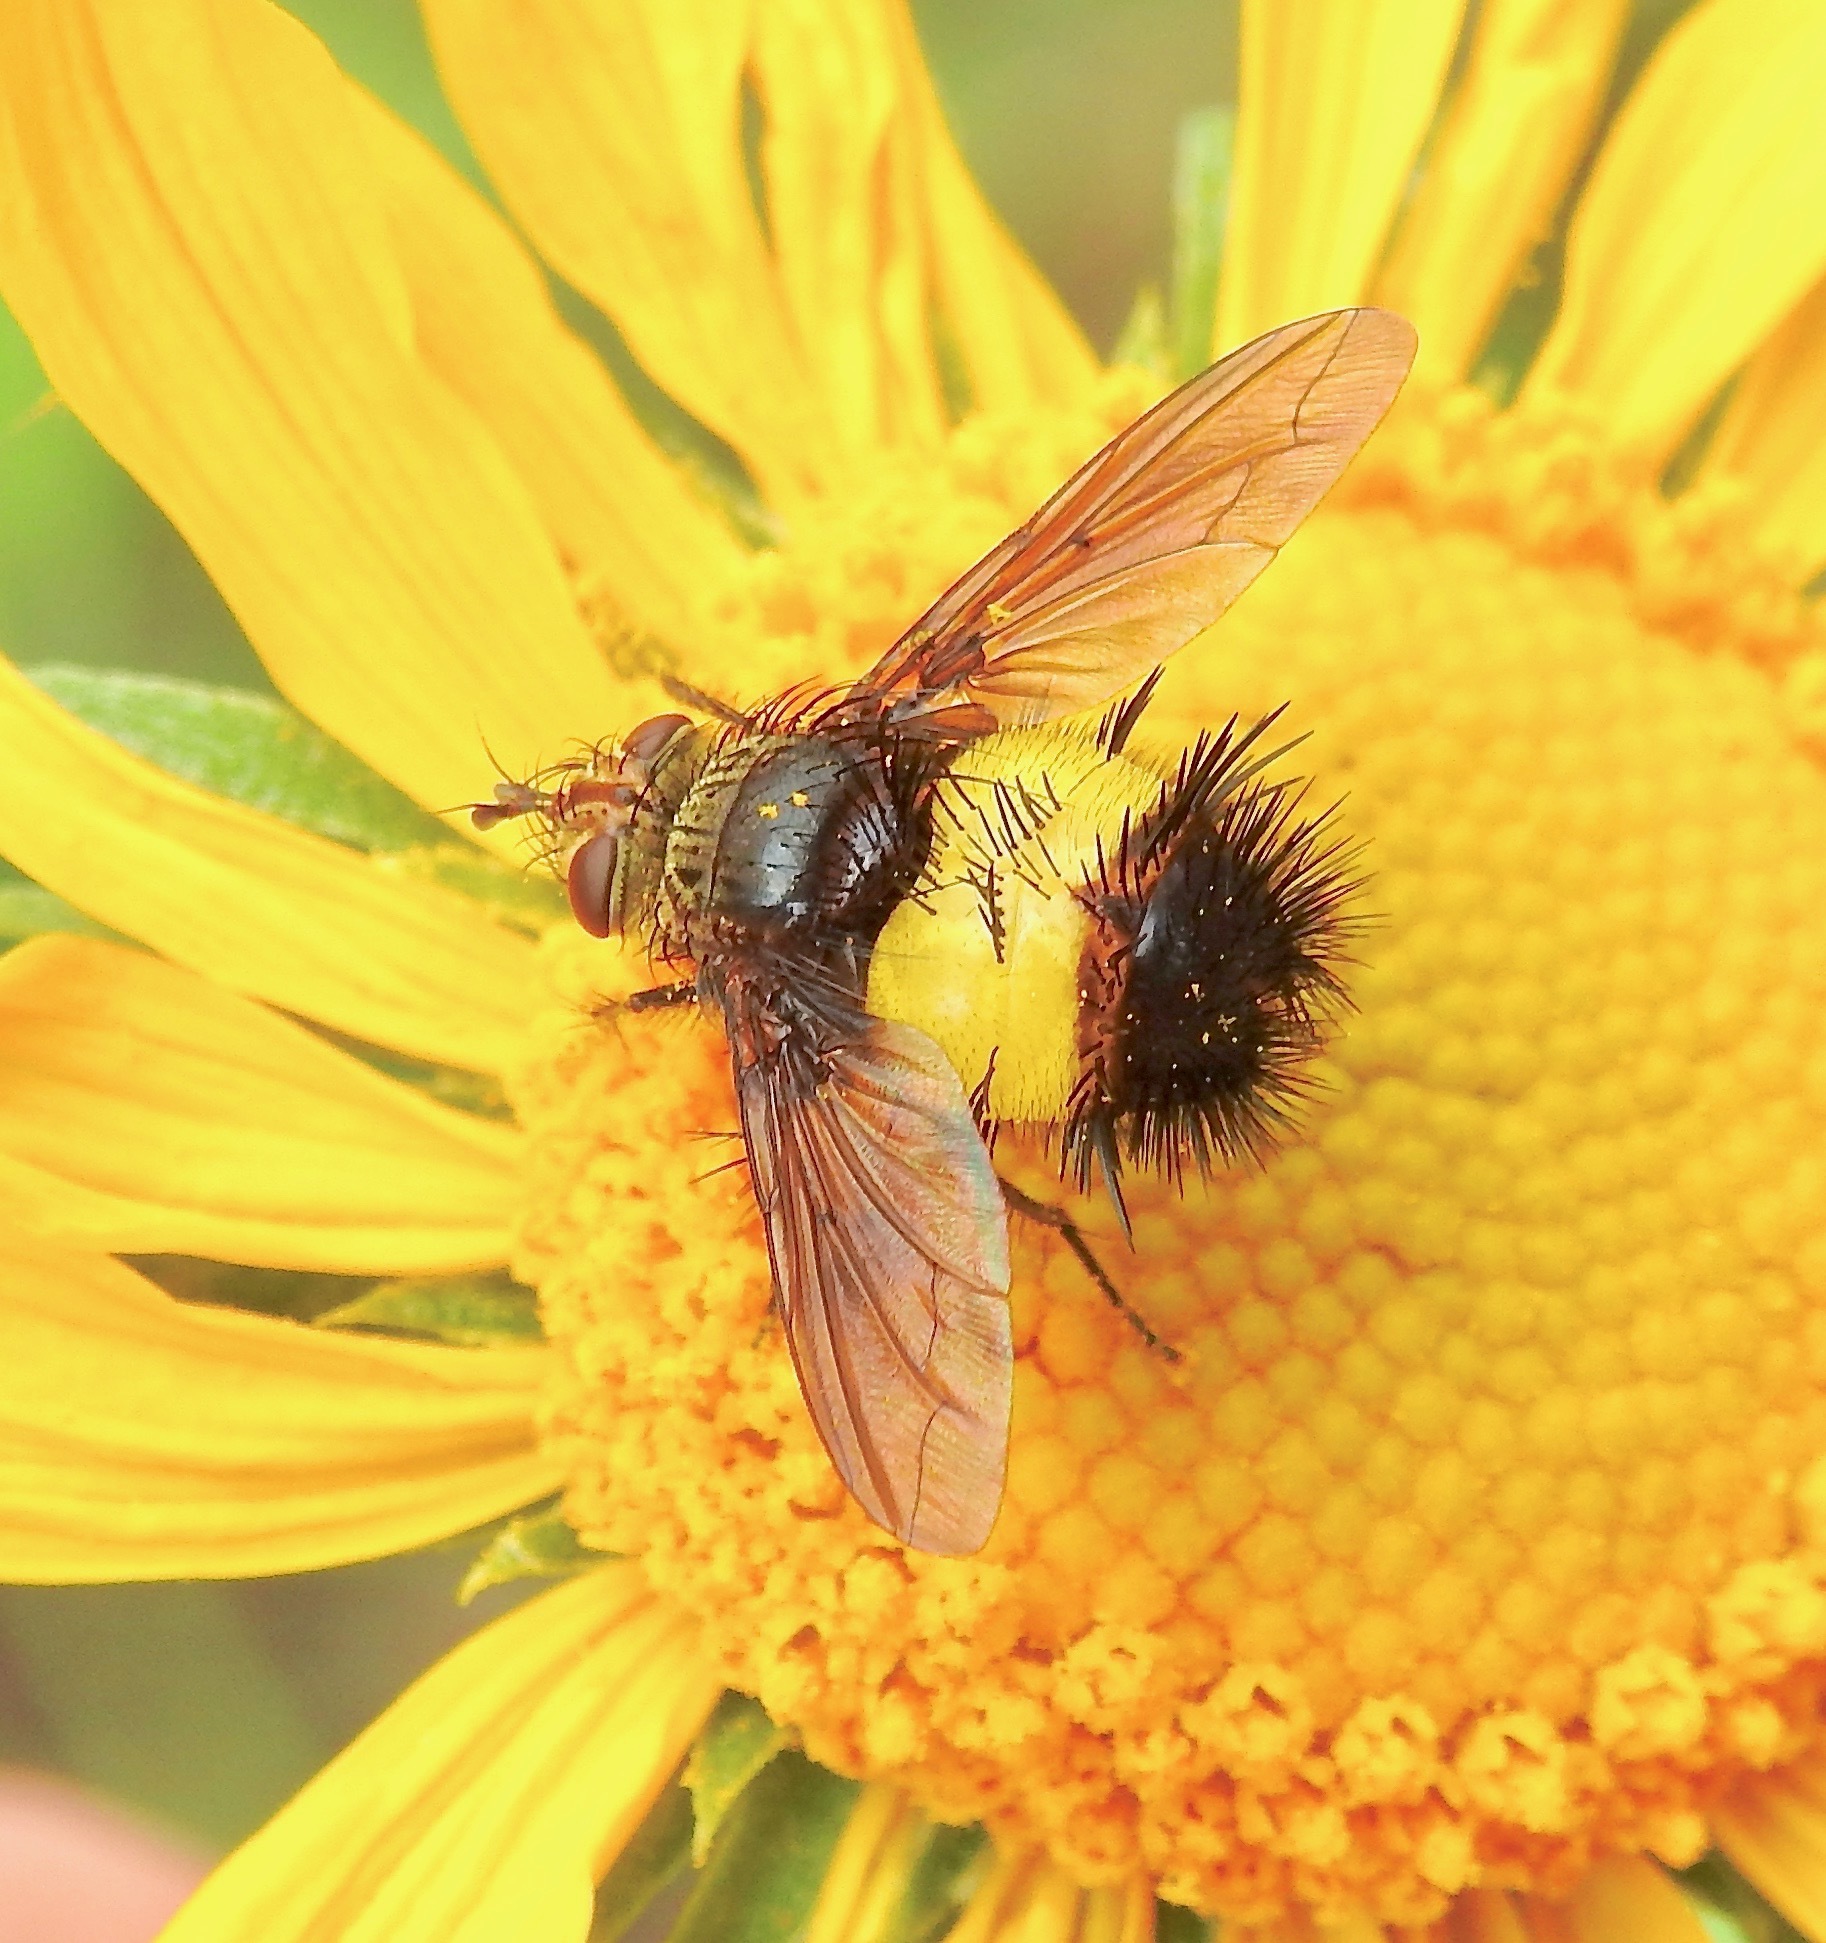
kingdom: Animalia
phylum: Arthropoda
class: Insecta
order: Diptera
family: Tachinidae
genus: Xanthoepalpus
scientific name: Xanthoepalpus bicolor
